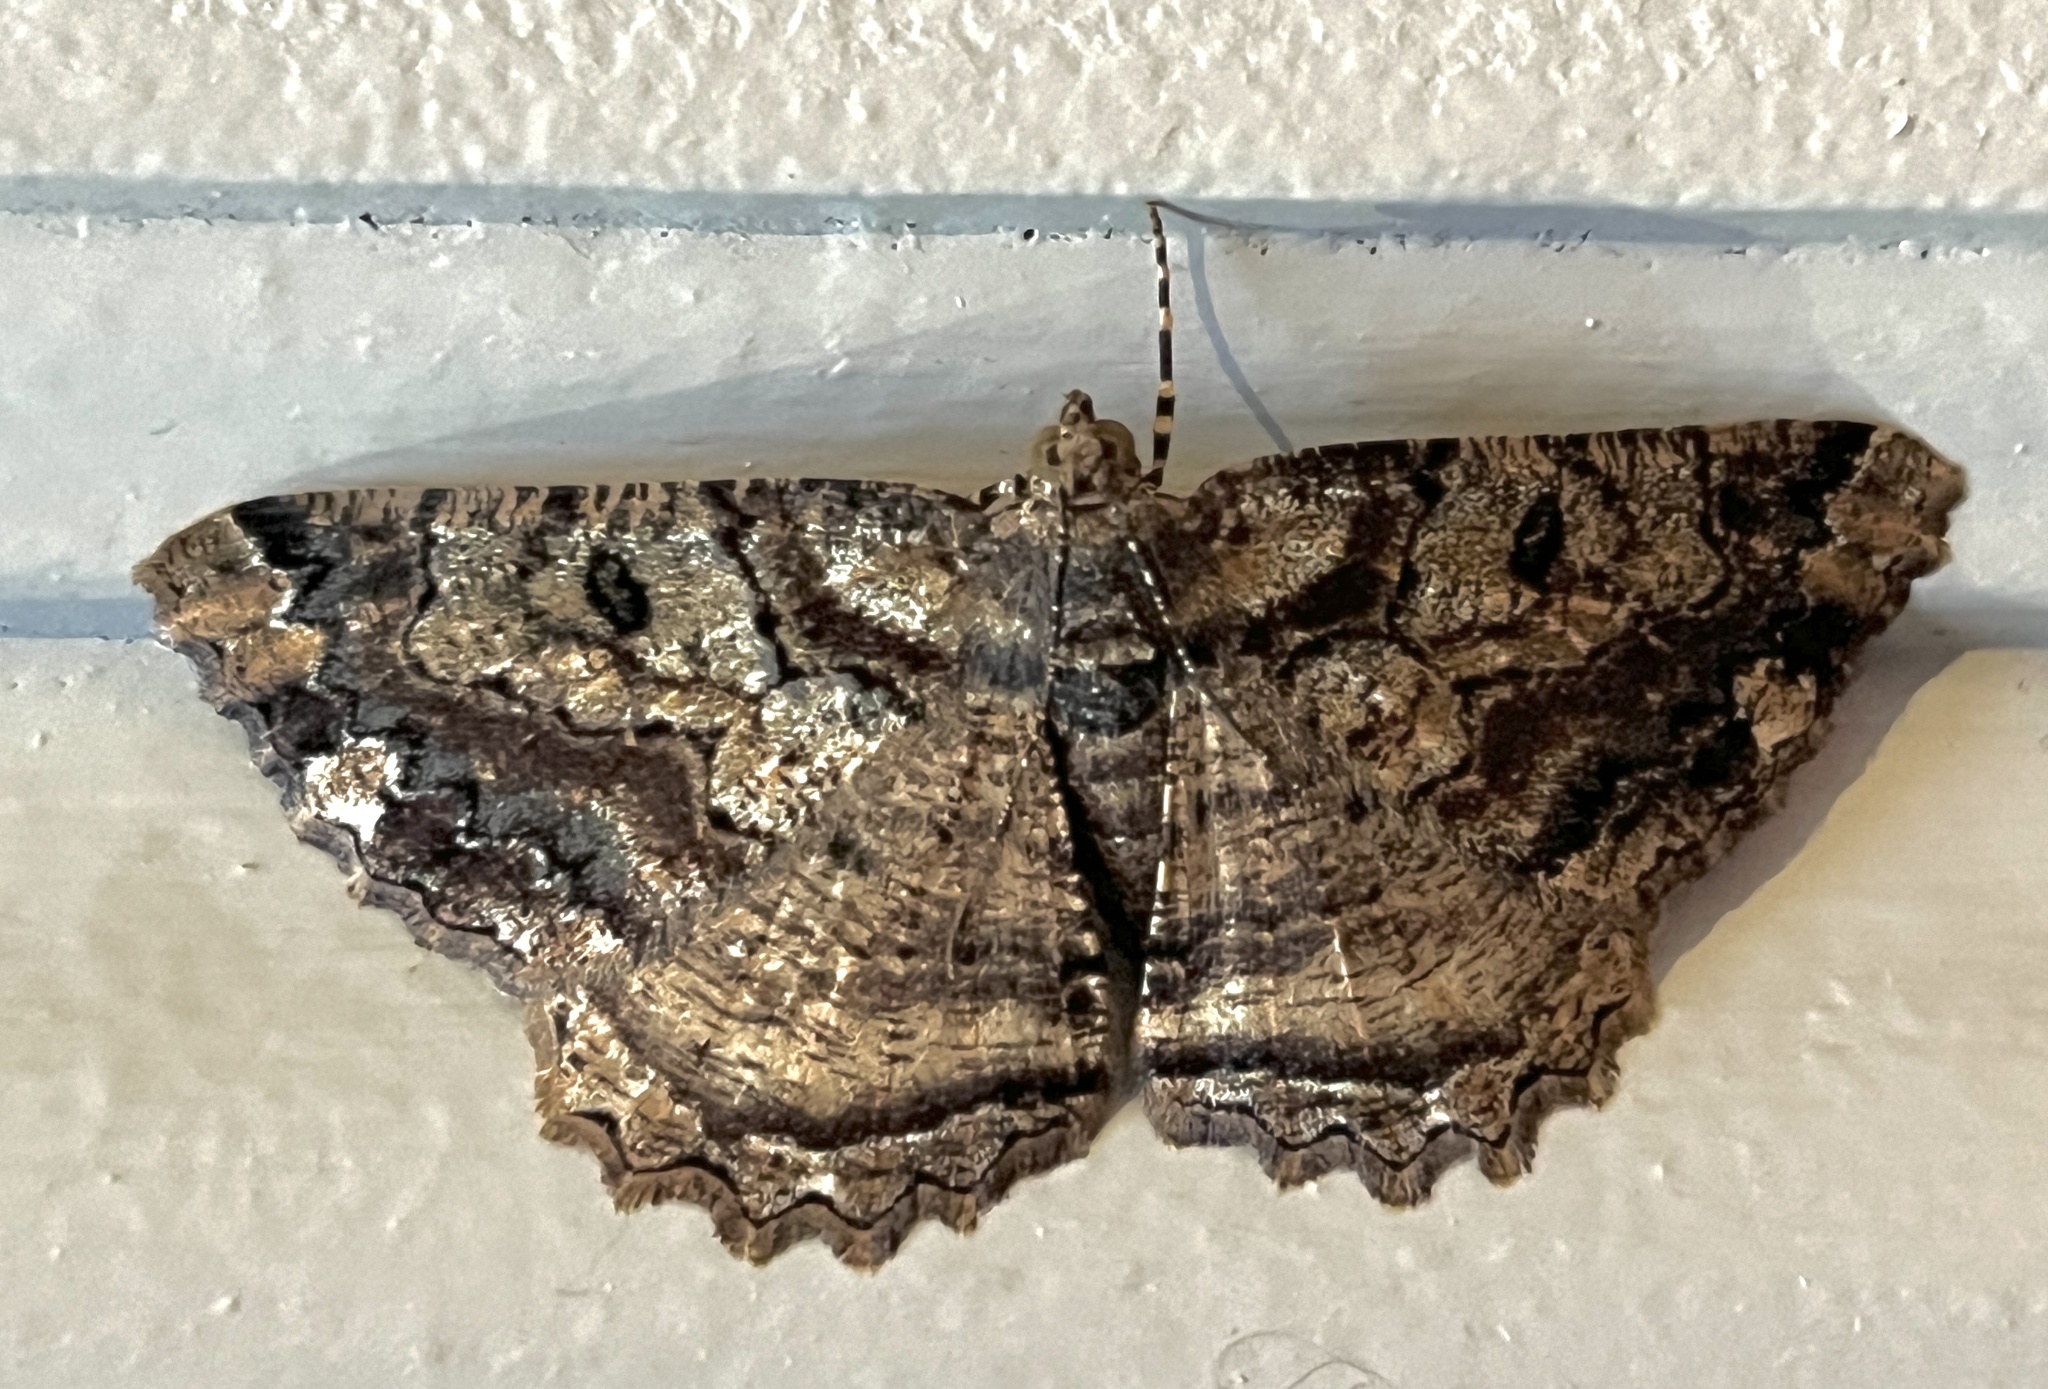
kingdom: Animalia
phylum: Arthropoda
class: Insecta
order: Lepidoptera
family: Geometridae
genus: Xylopteryx
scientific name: Xylopteryx protearia
